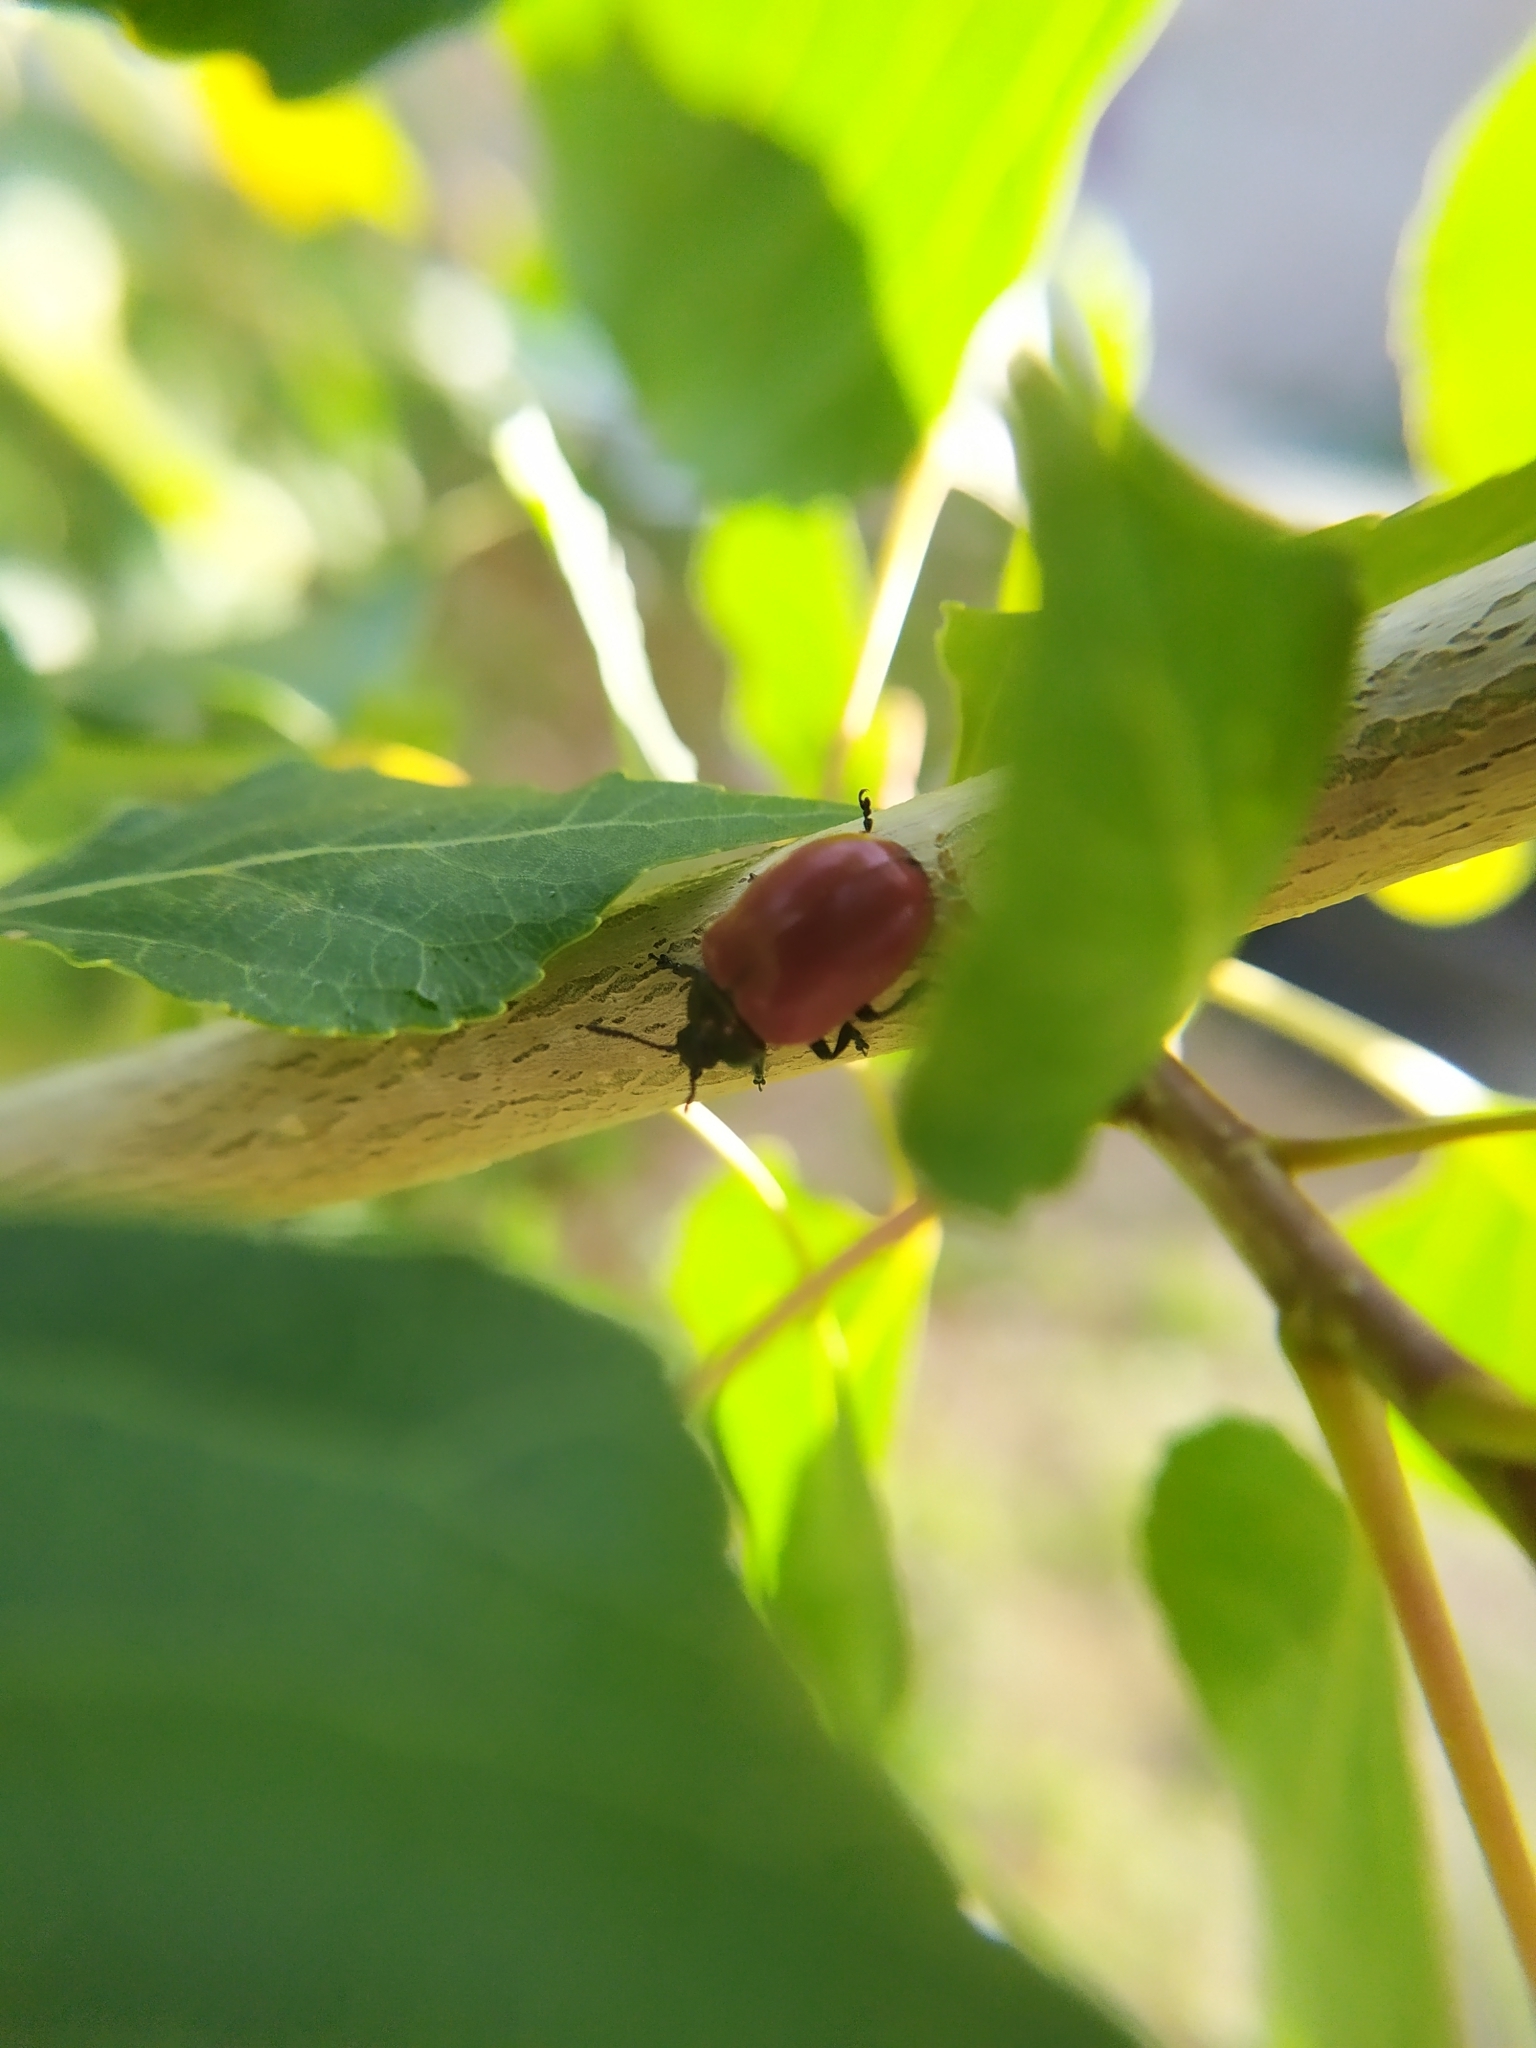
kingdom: Animalia
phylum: Arthropoda
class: Insecta
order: Coleoptera
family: Chrysomelidae
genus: Chrysomela
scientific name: Chrysomela populi
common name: Red poplar leaf beetle
